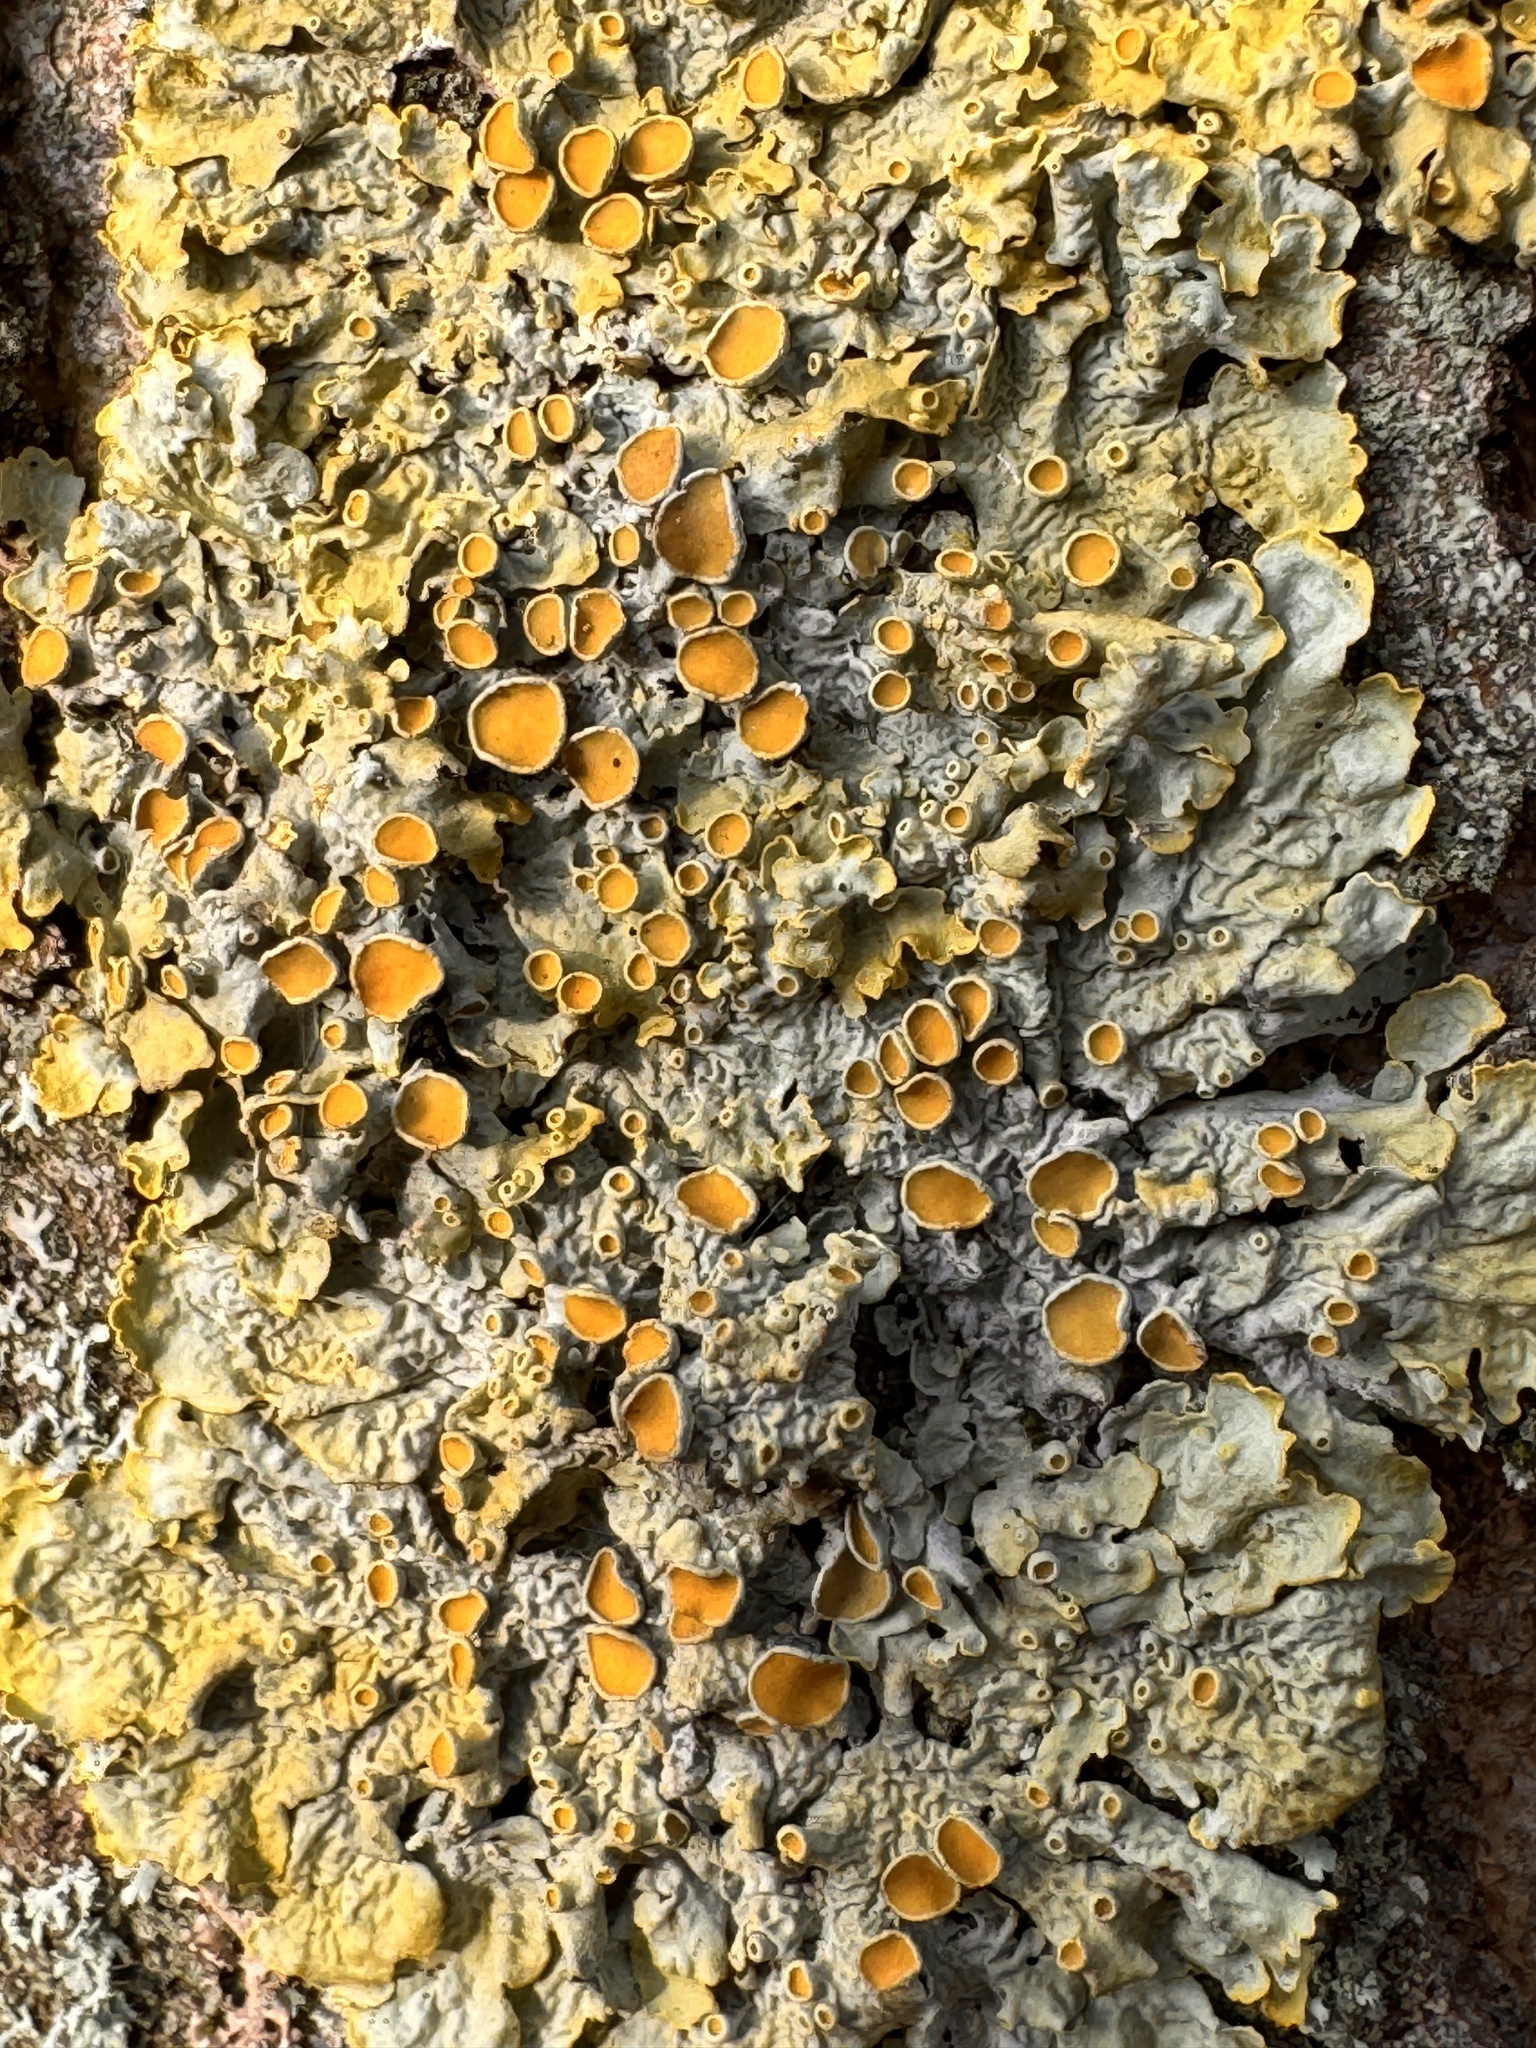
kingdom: Fungi
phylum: Ascomycota
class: Lecanoromycetes
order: Teloschistales
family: Teloschistaceae
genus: Xanthoria
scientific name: Xanthoria parietina
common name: Common orange lichen
